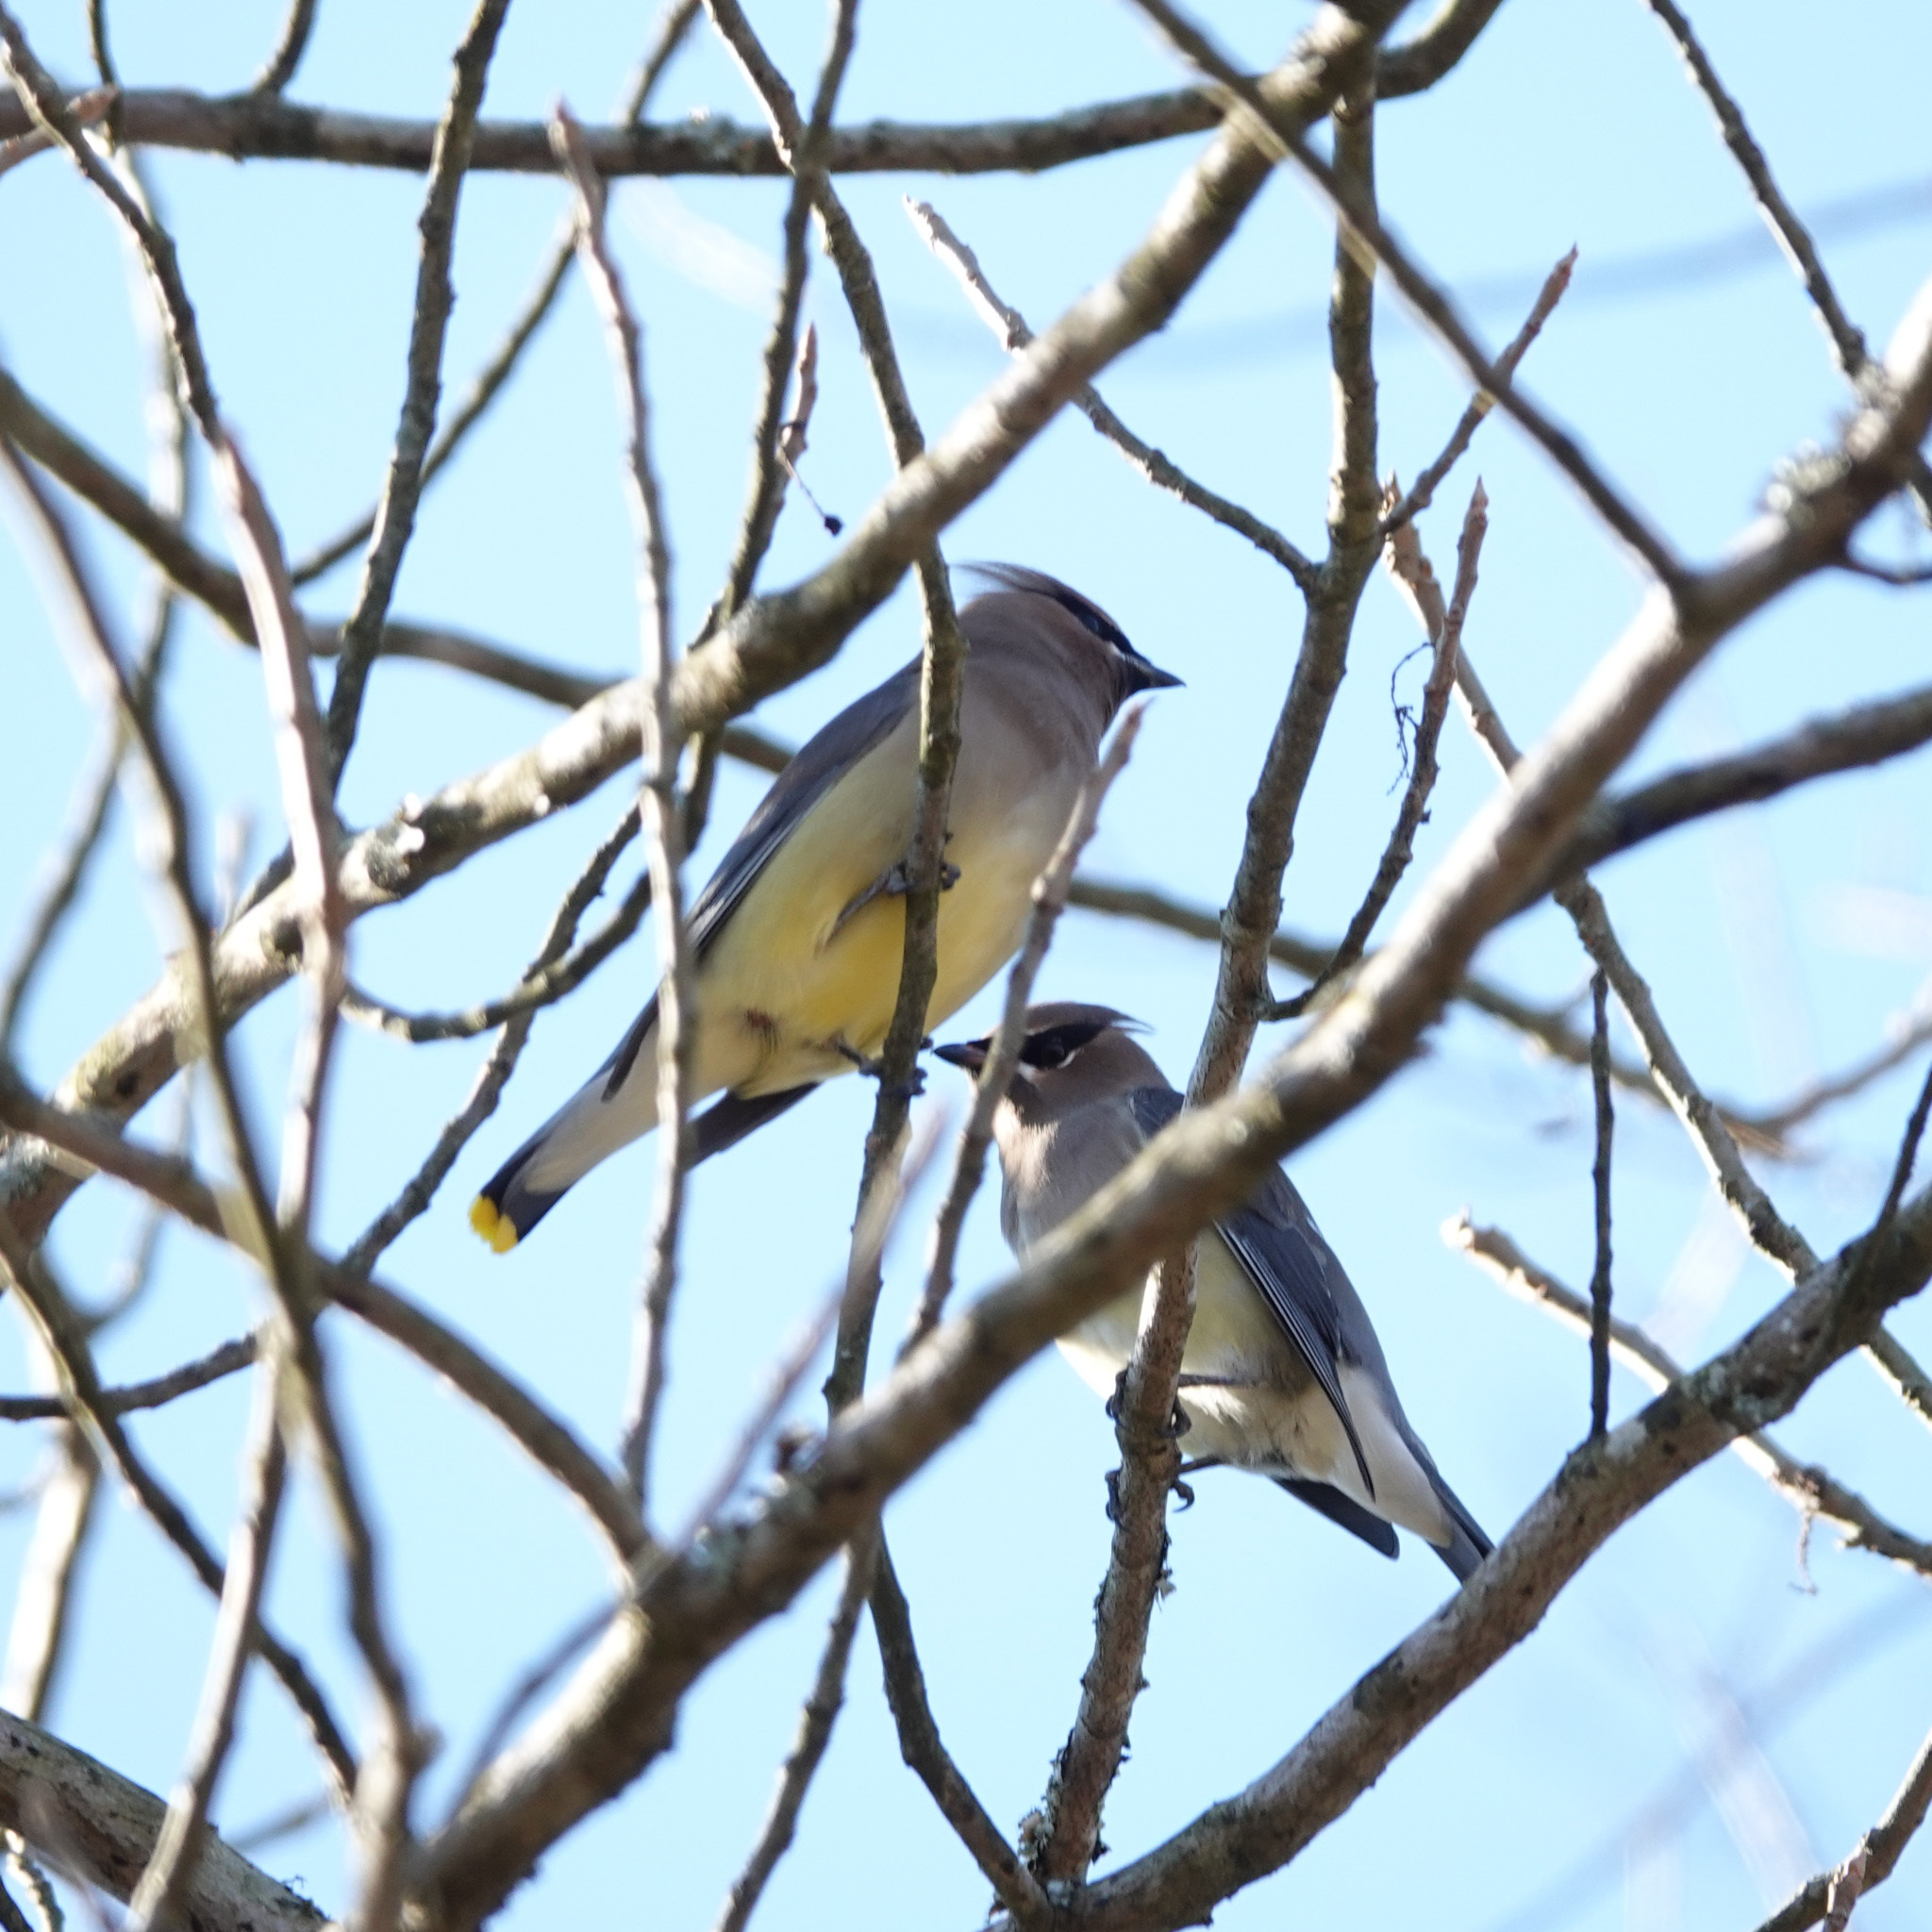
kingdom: Animalia
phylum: Chordata
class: Aves
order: Passeriformes
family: Bombycillidae
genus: Bombycilla
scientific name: Bombycilla cedrorum
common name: Cedar waxwing
